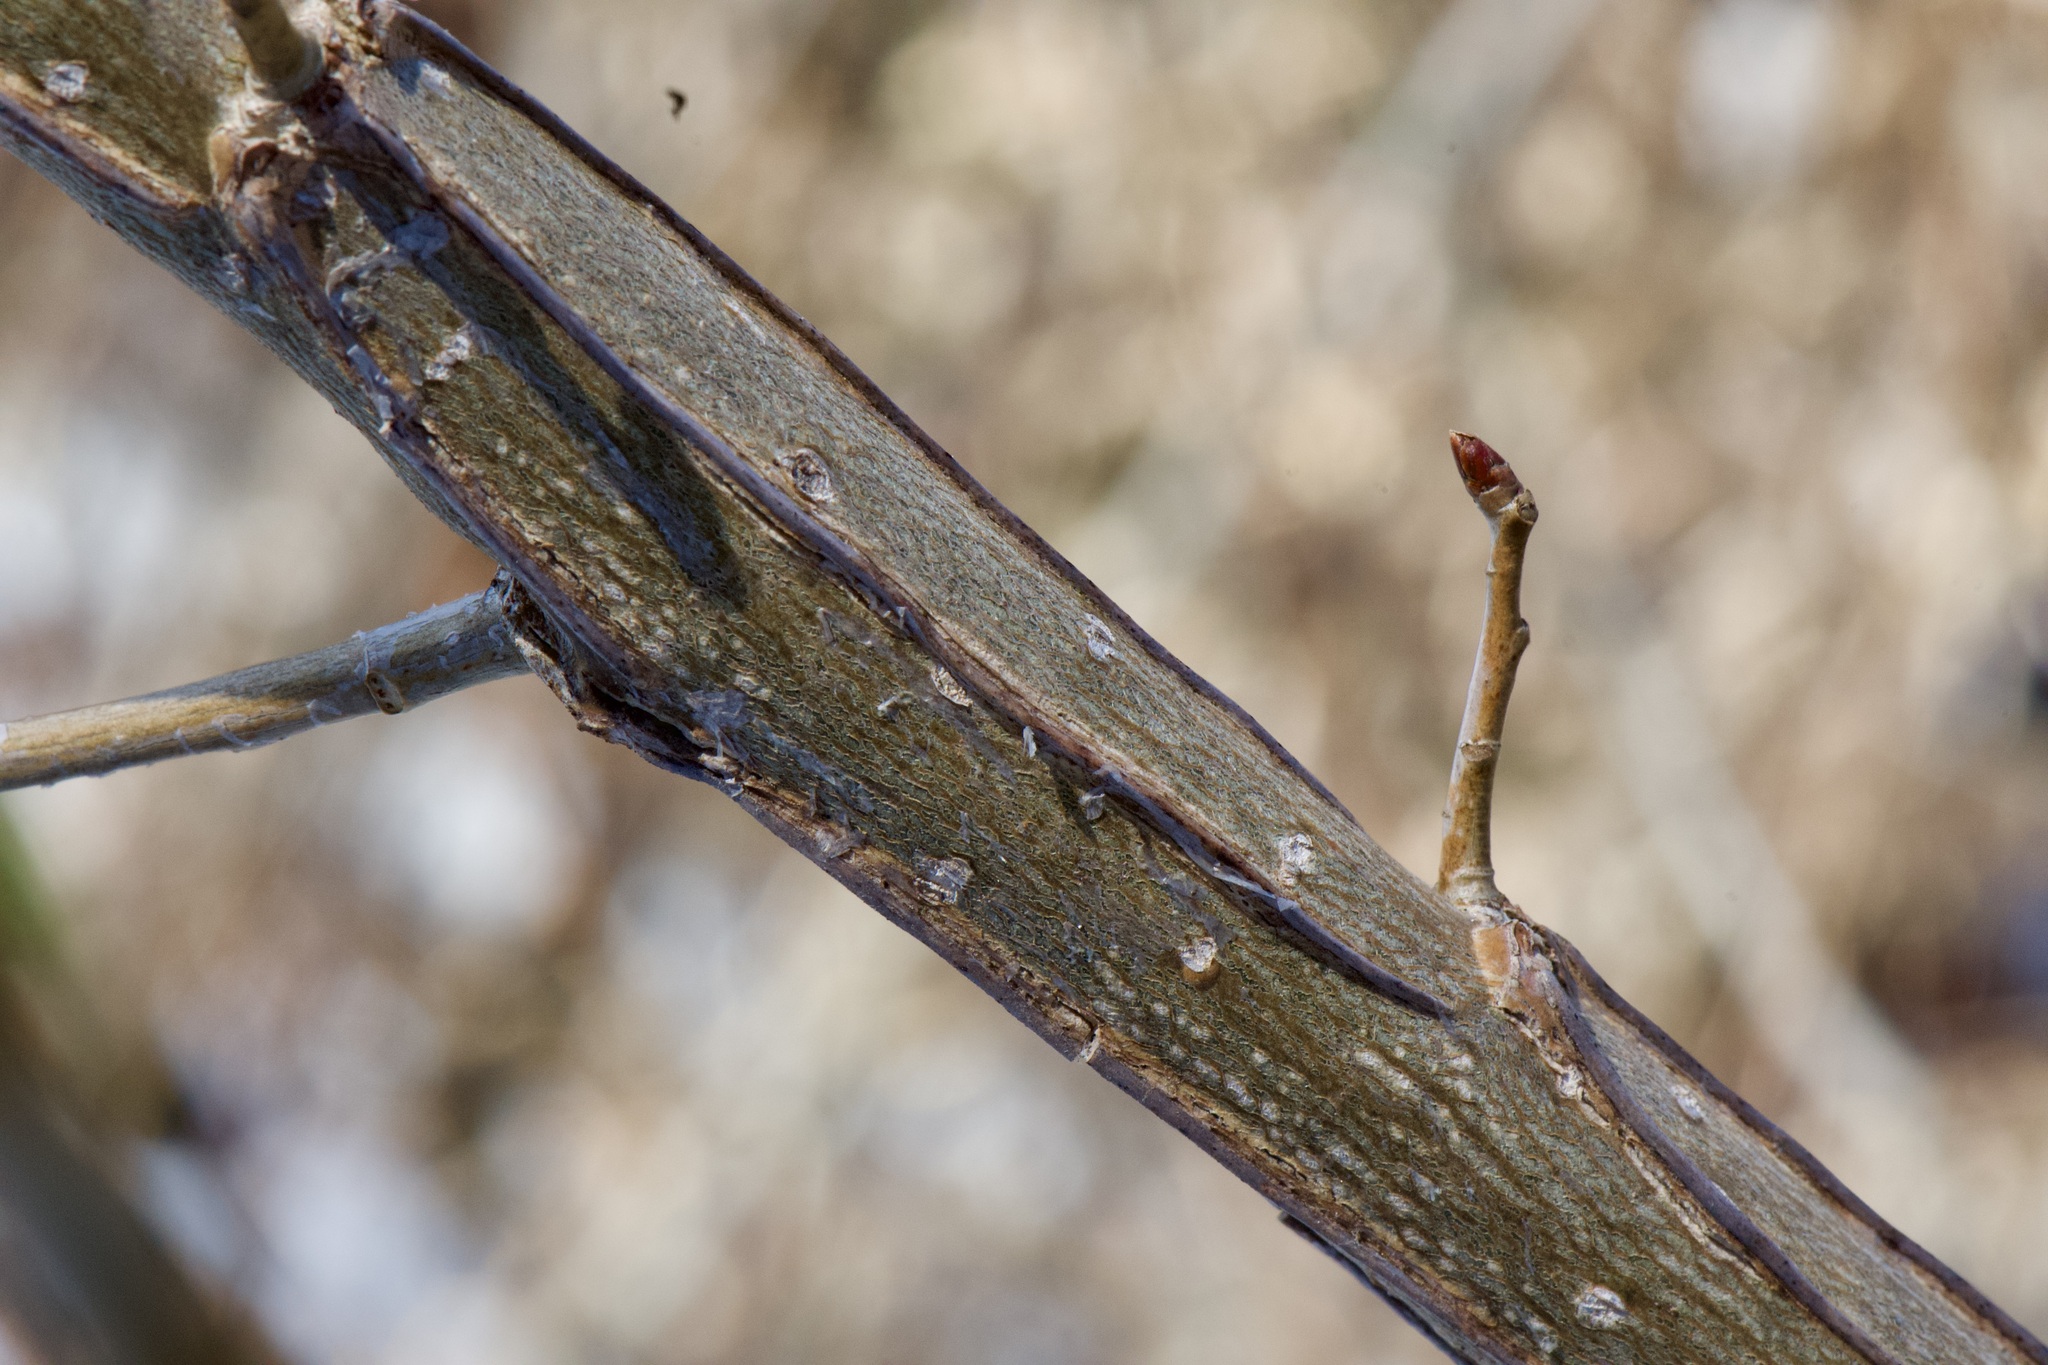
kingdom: Plantae
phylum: Tracheophyta
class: Magnoliopsida
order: Malpighiales
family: Salicaceae
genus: Populus
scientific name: Populus deltoides
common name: Eastern cottonwood
